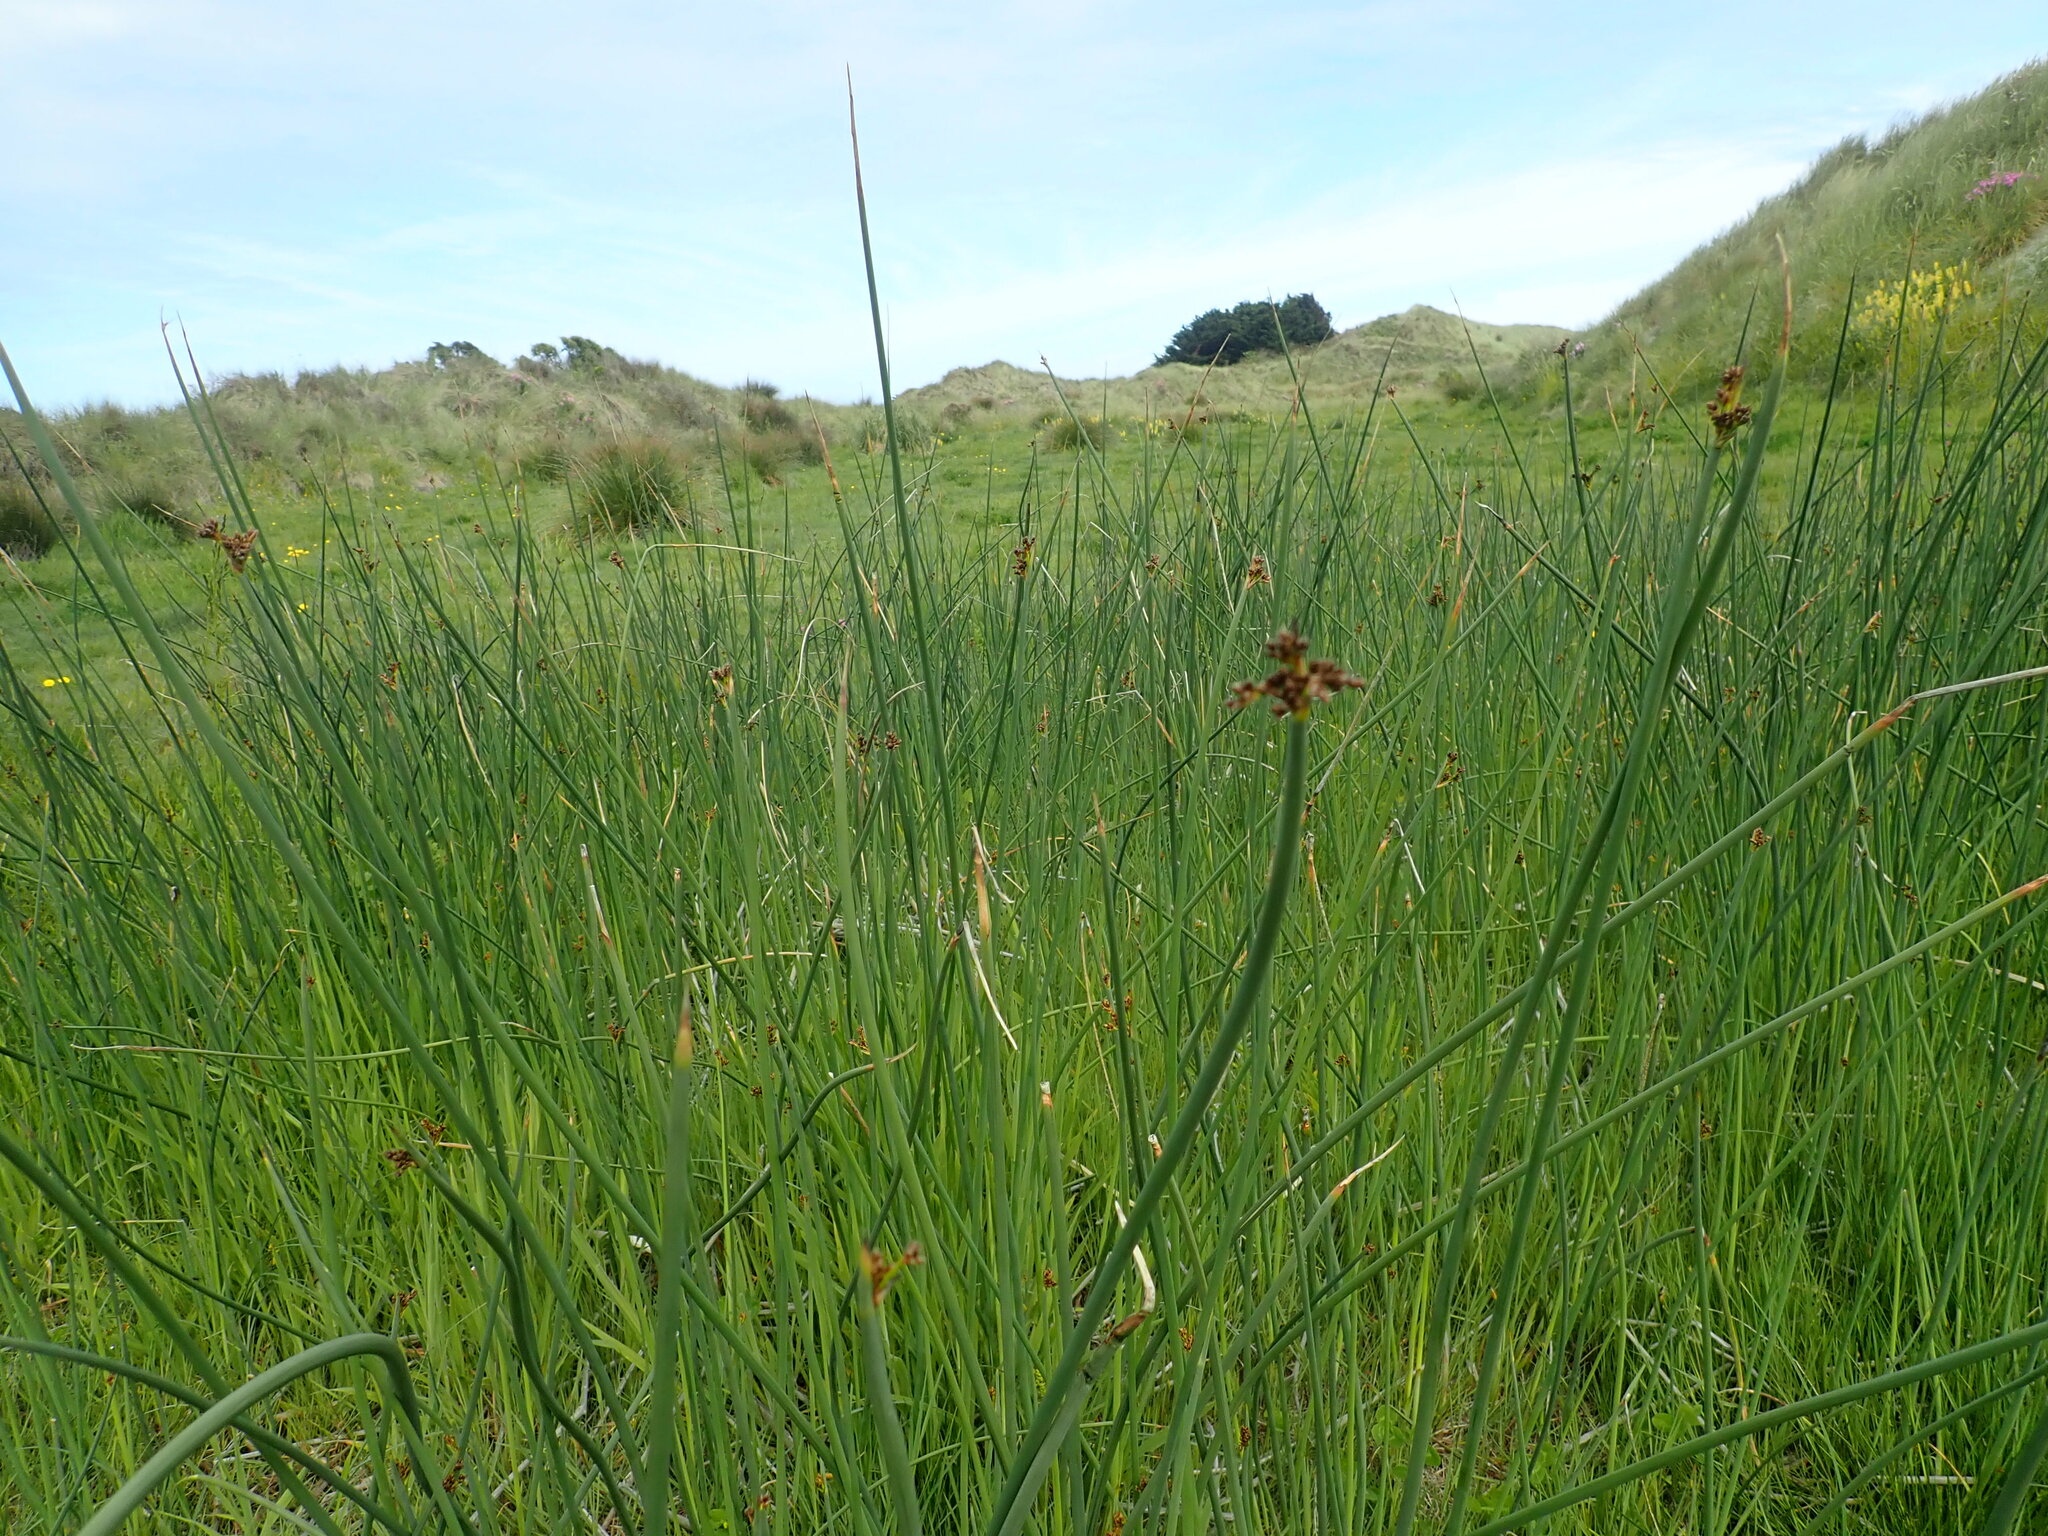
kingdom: Plantae
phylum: Tracheophyta
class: Liliopsida
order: Poales
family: Cyperaceae
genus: Schoenoplectus
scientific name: Schoenoplectus tabernaemontani
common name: Grey club-rush
